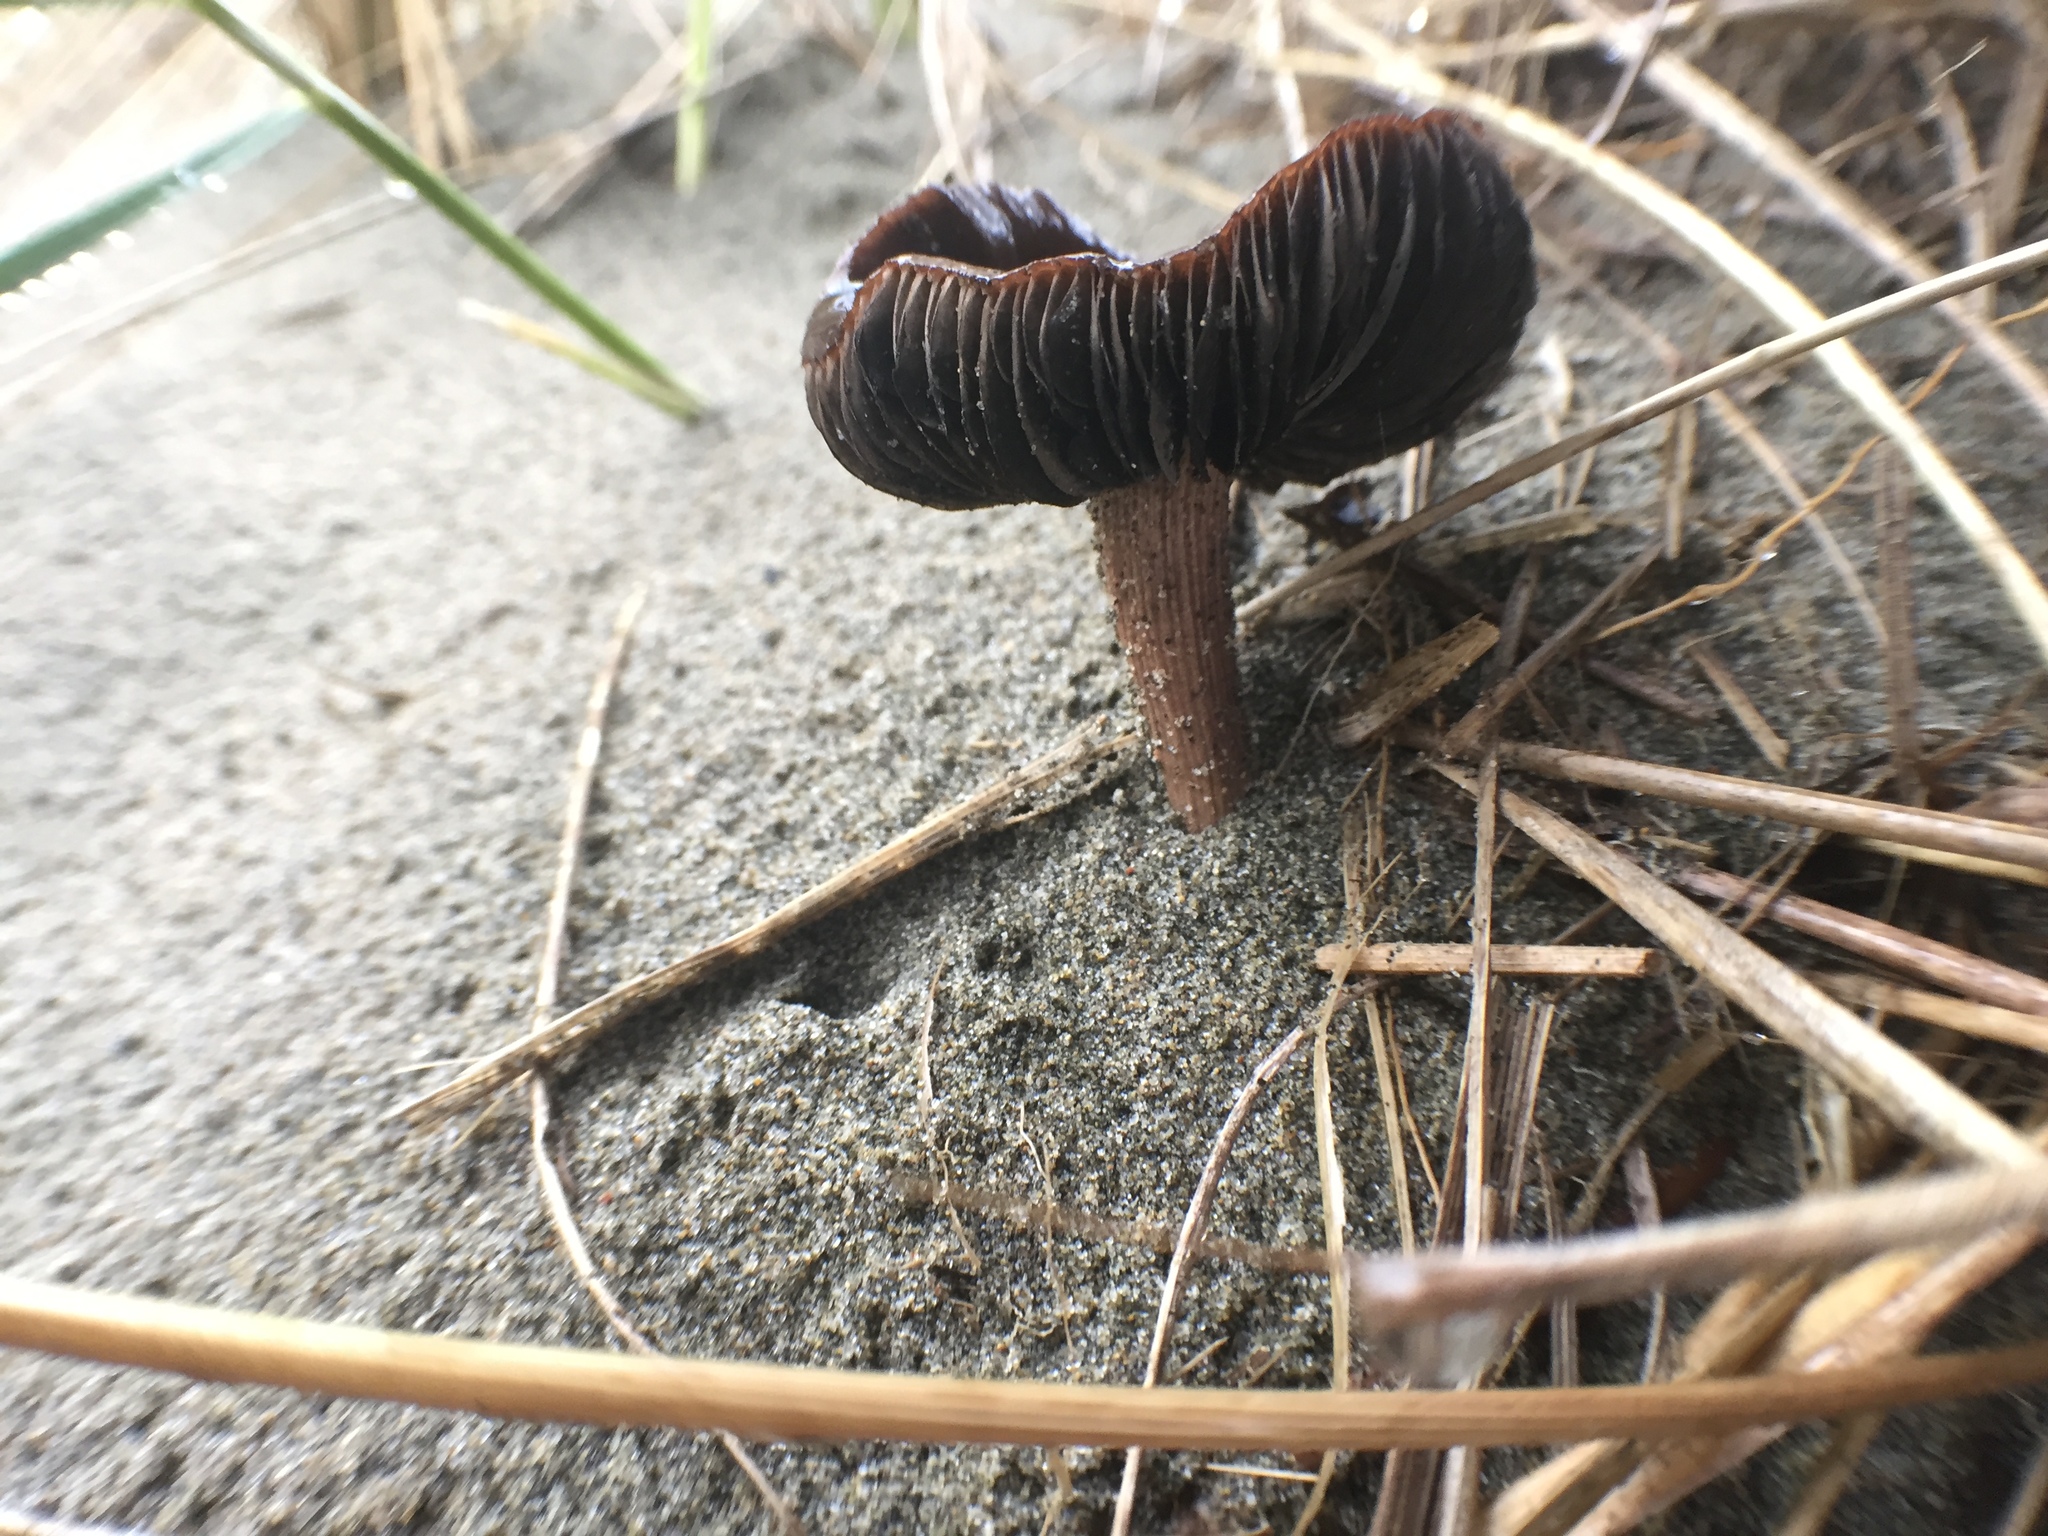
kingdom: Fungi
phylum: Basidiomycota
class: Agaricomycetes
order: Agaricales
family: Agaricaceae
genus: Montagnea
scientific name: Montagnea arenaria
